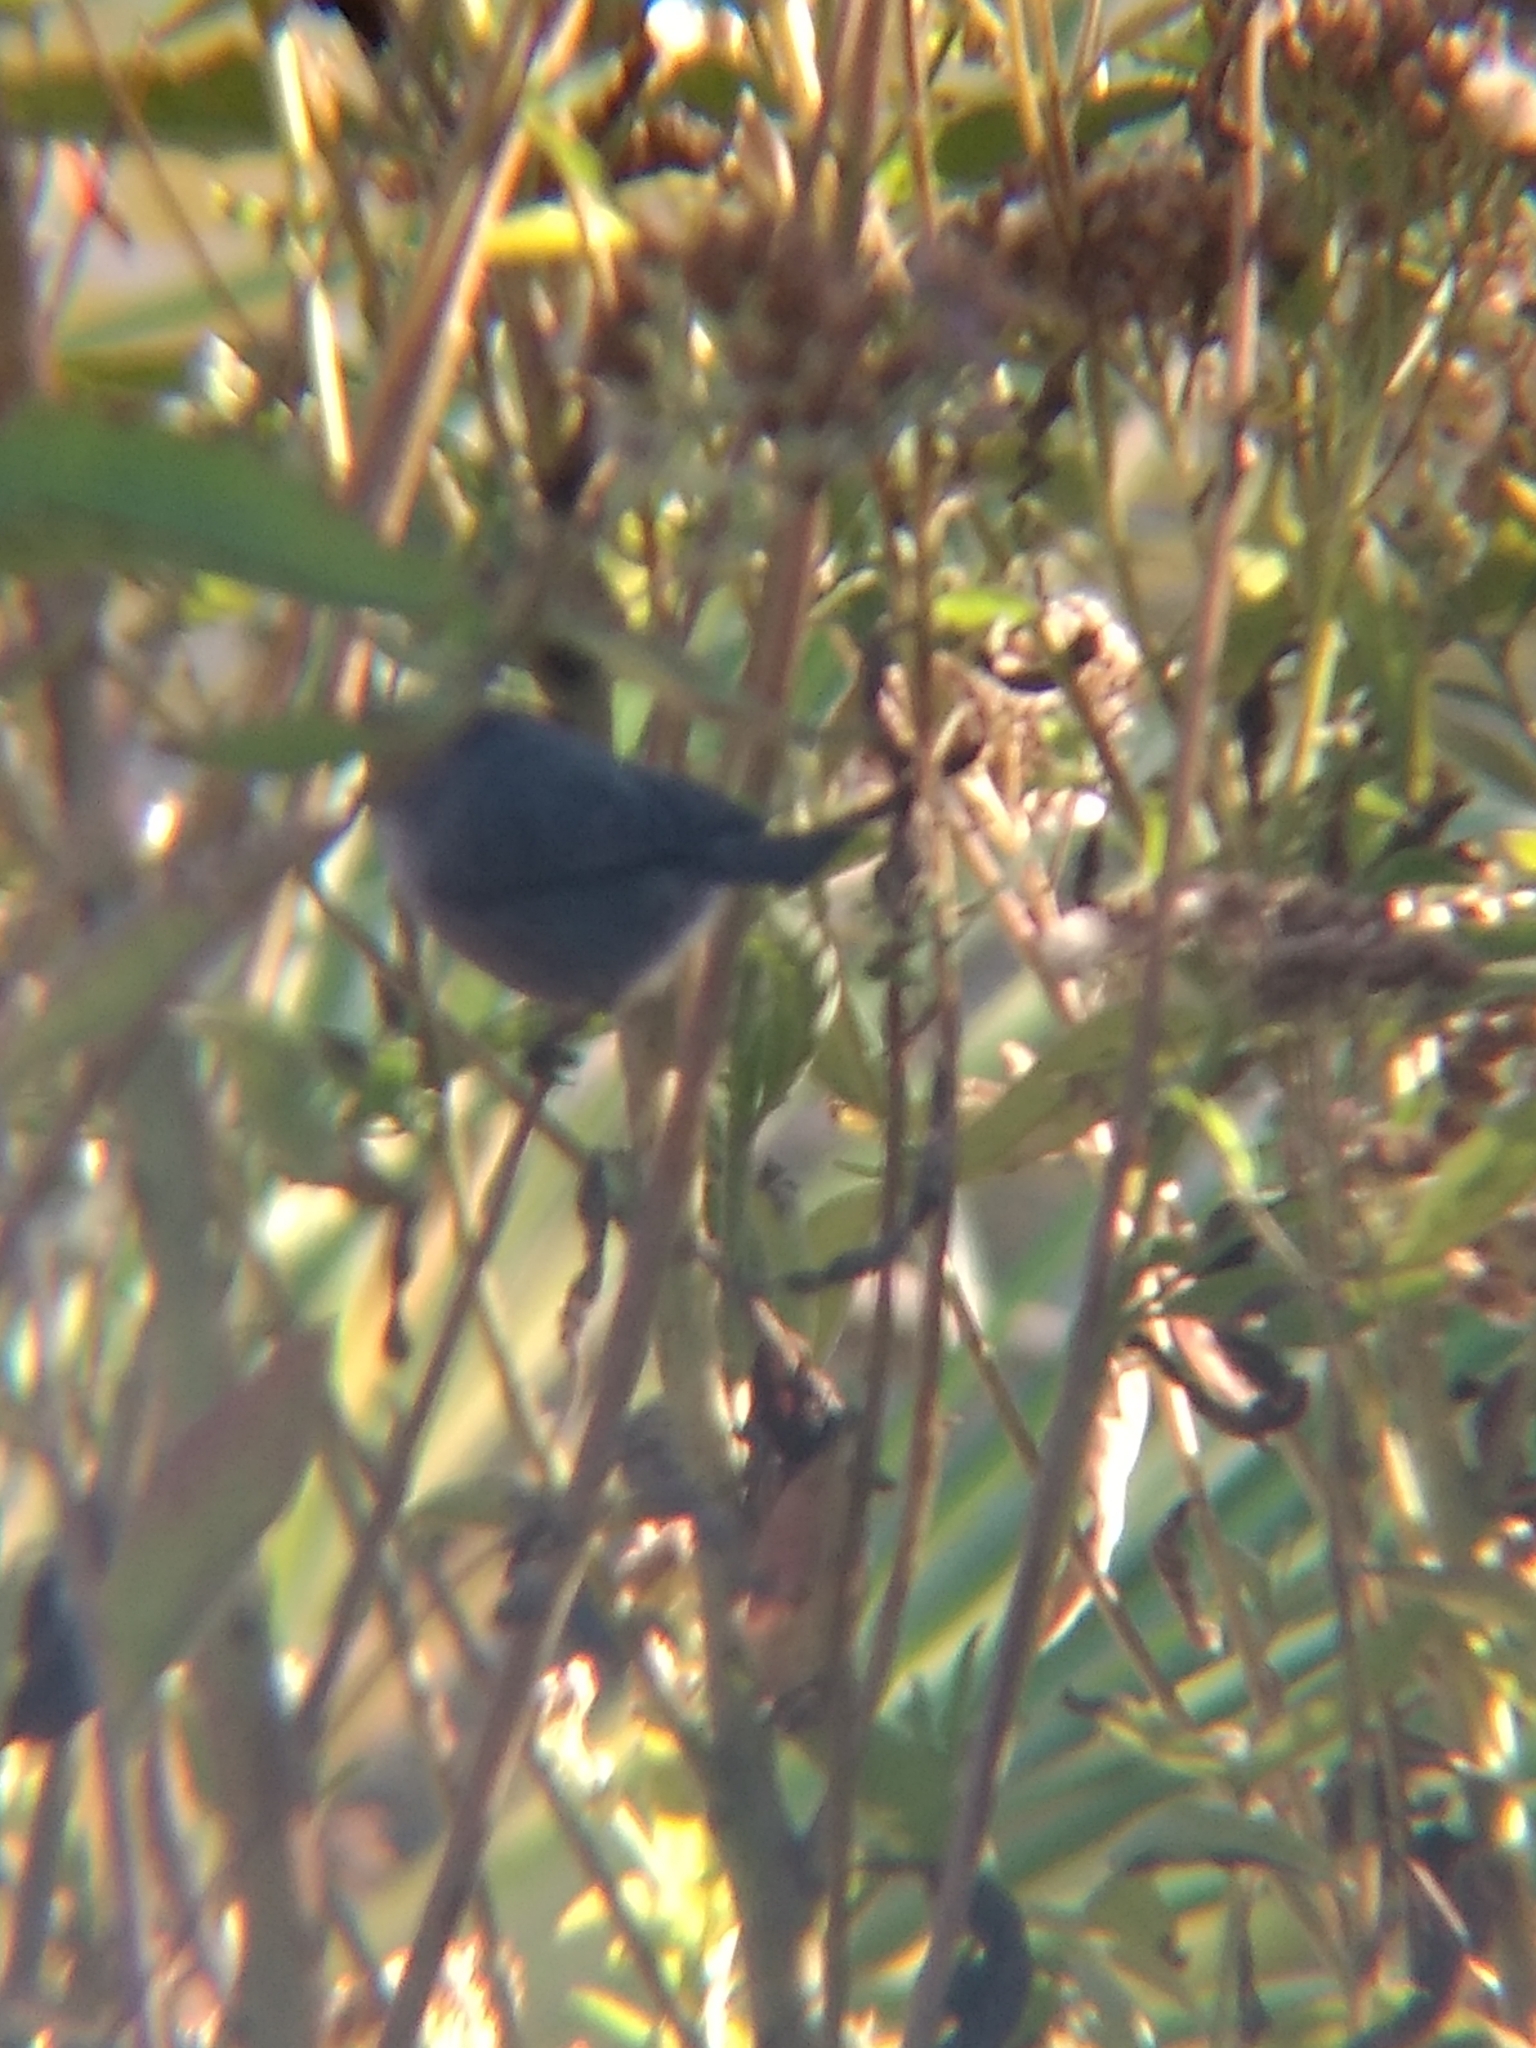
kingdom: Animalia
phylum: Chordata
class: Aves
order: Passeriformes
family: Aegithalidae
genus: Psaltriparus
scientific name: Psaltriparus minimus
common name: American bushtit
